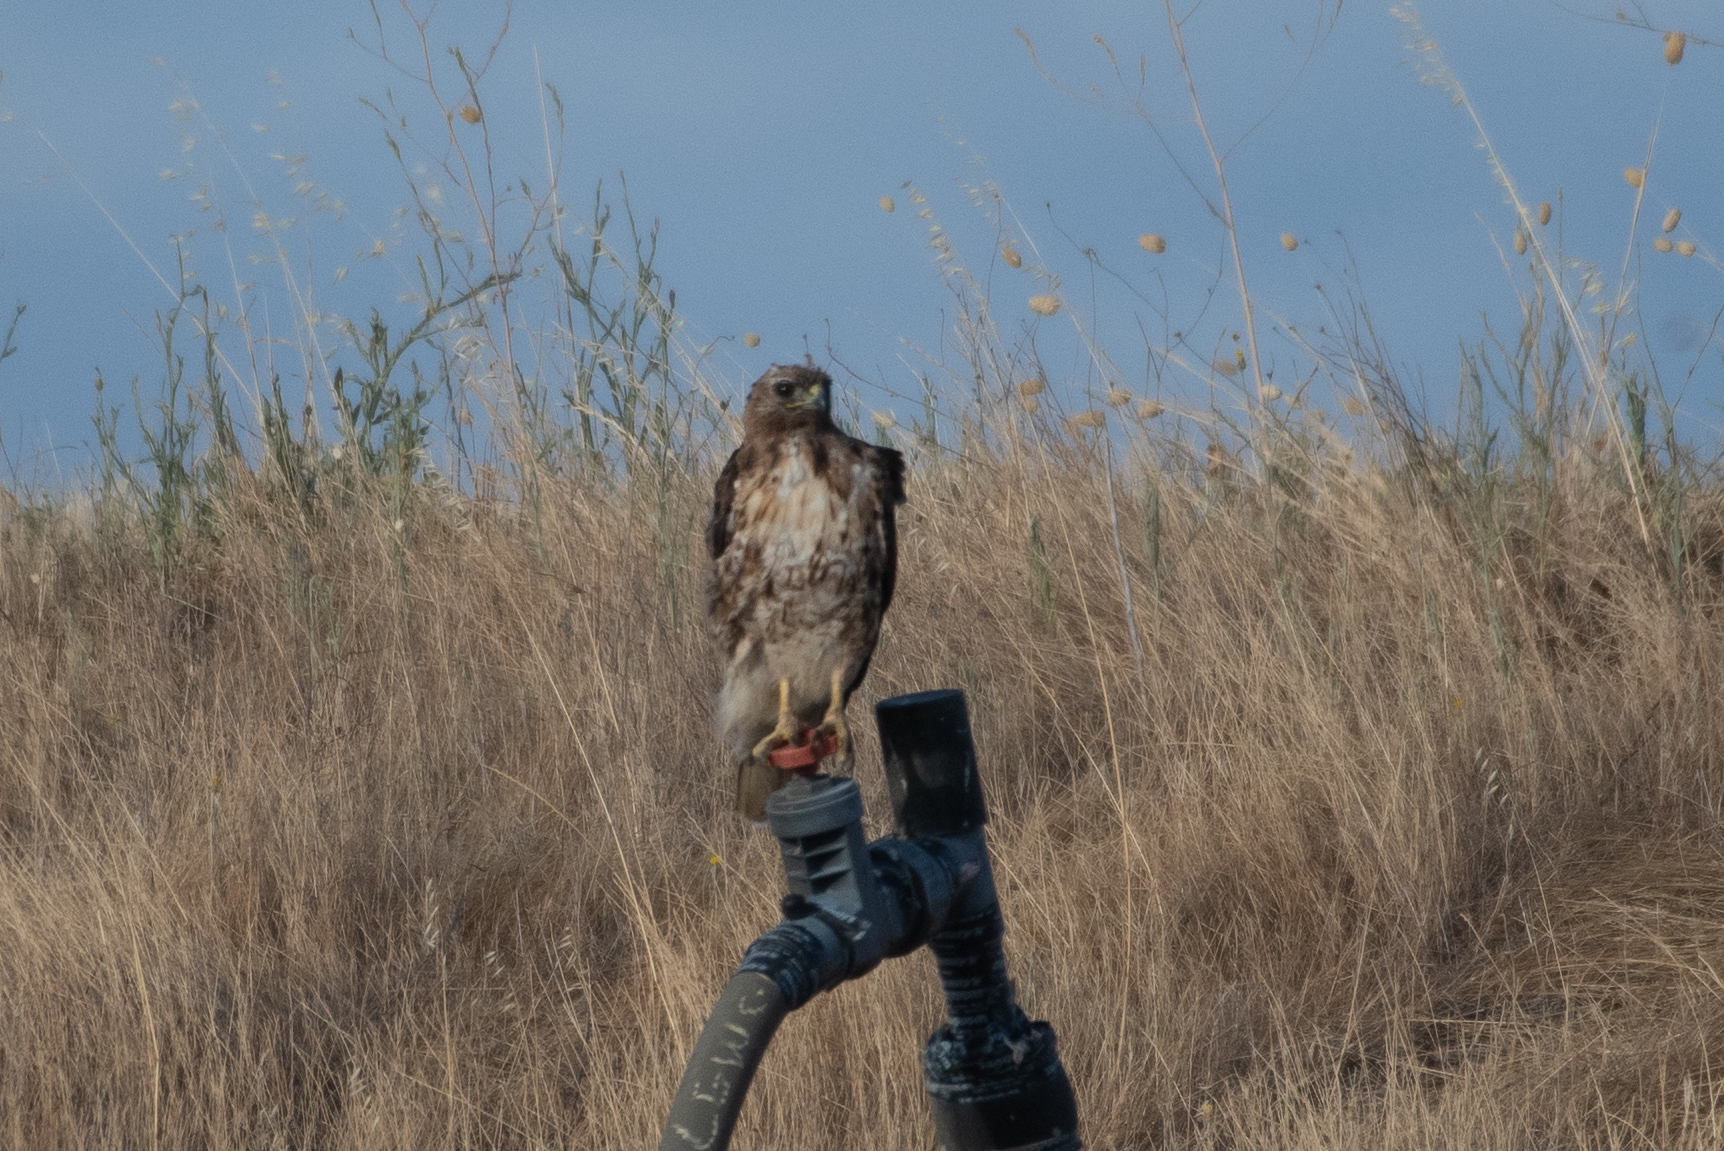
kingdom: Animalia
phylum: Chordata
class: Aves
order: Accipitriformes
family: Accipitridae
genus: Buteo
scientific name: Buteo jamaicensis
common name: Red-tailed hawk
